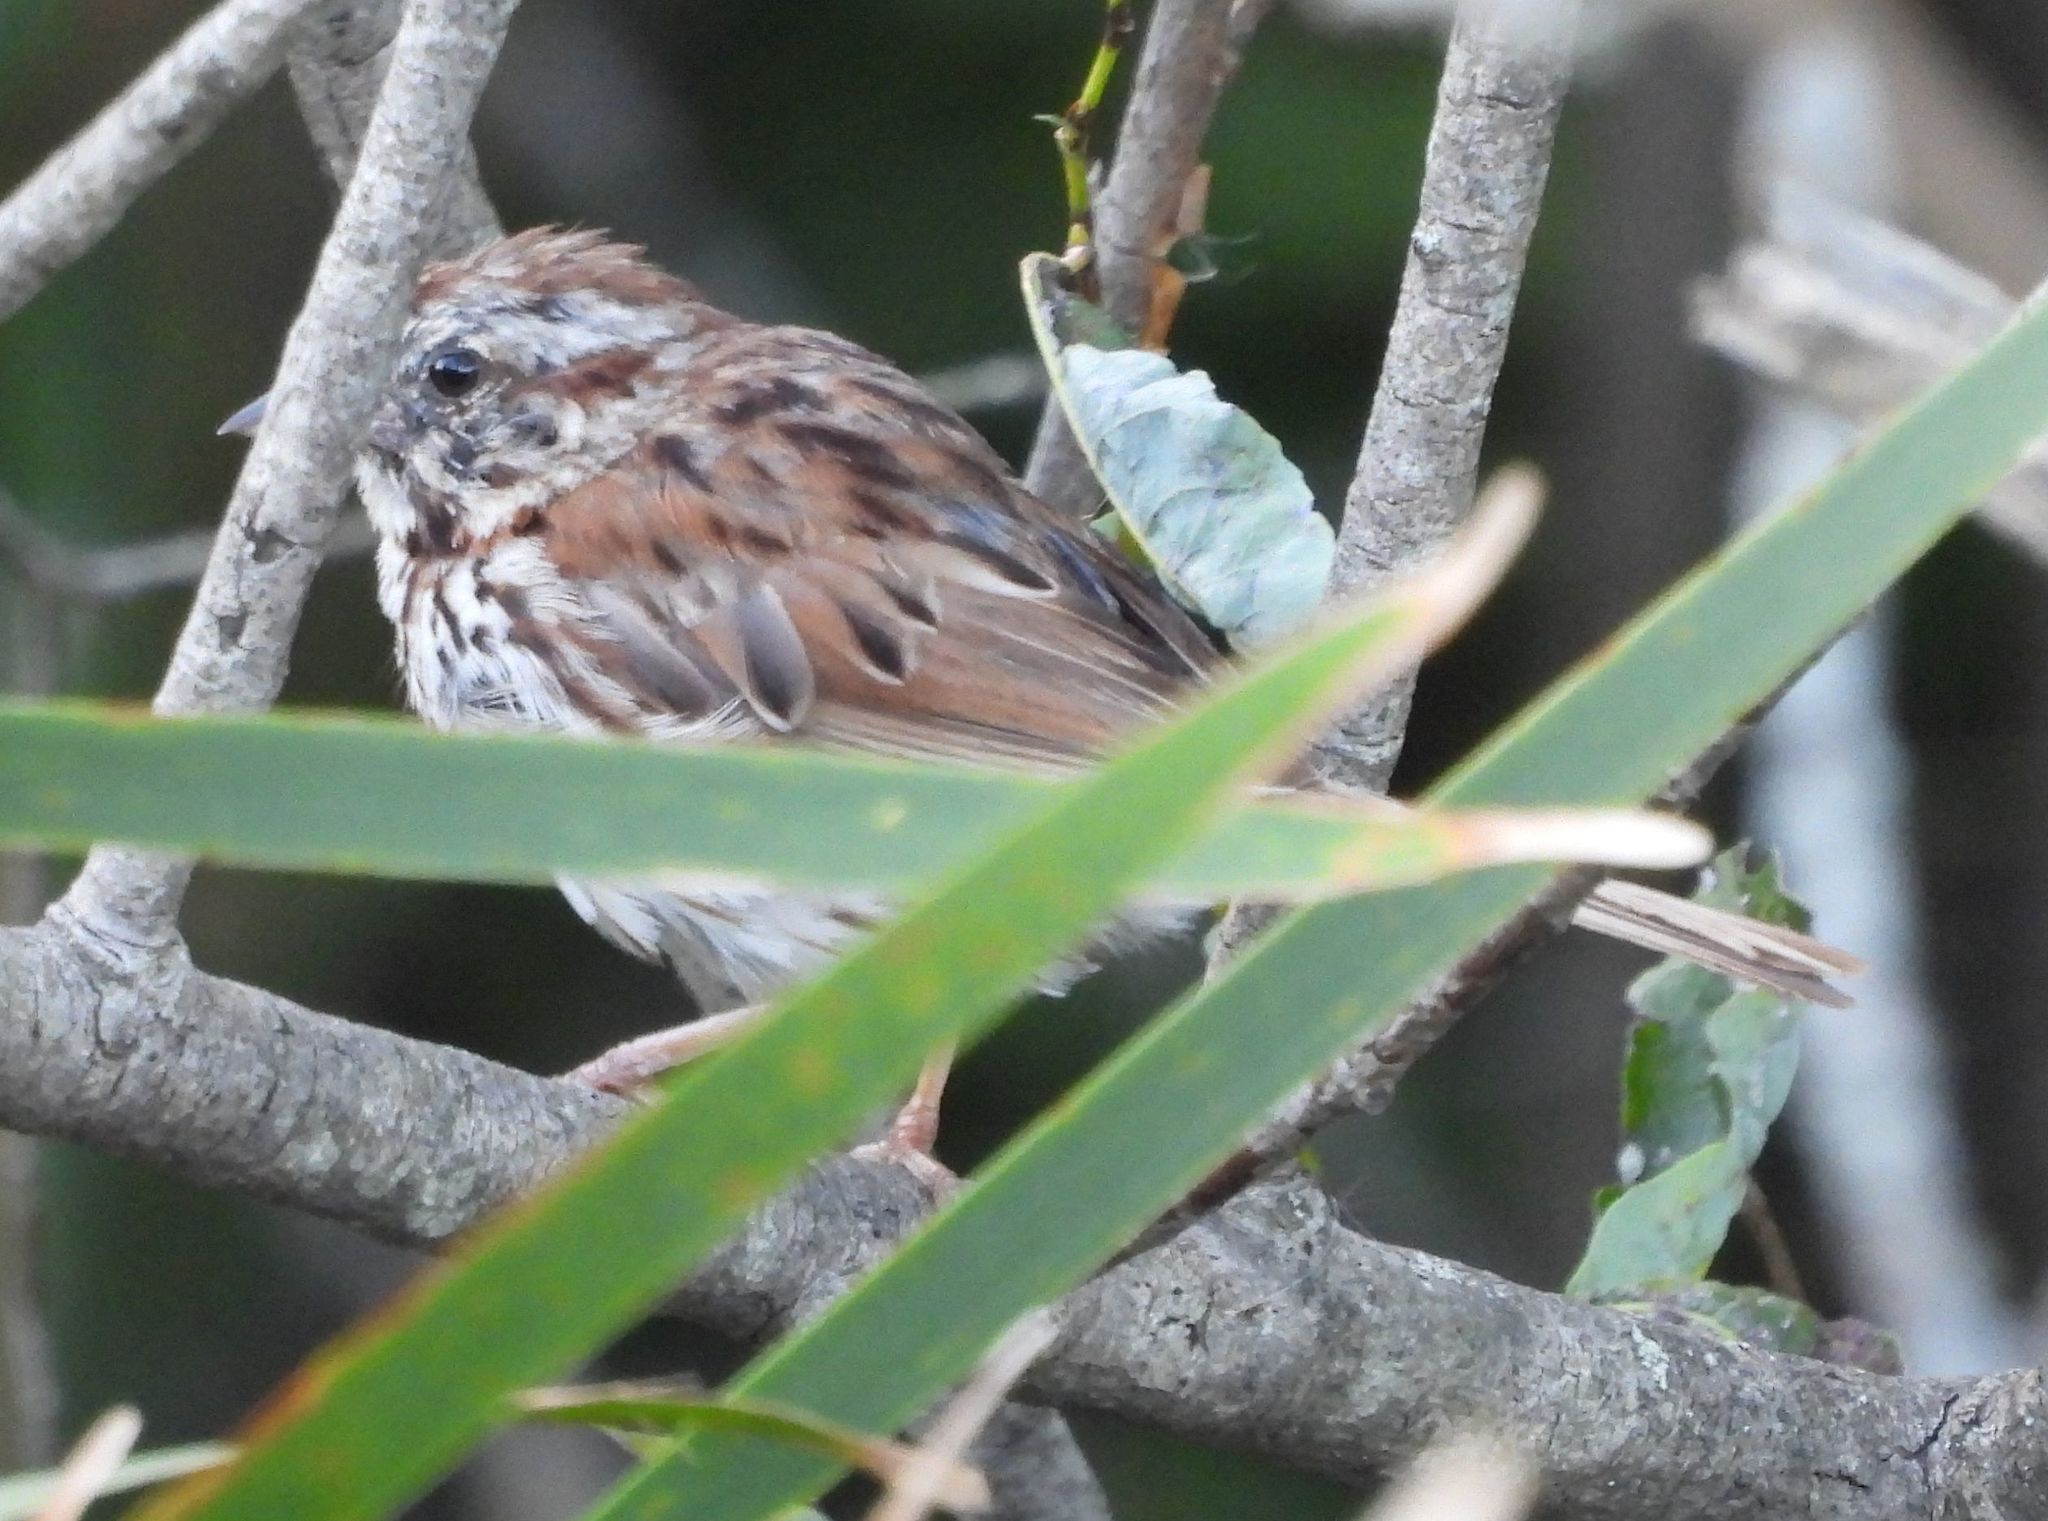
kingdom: Animalia
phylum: Chordata
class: Aves
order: Passeriformes
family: Passerellidae
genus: Melospiza
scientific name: Melospiza melodia
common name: Song sparrow
